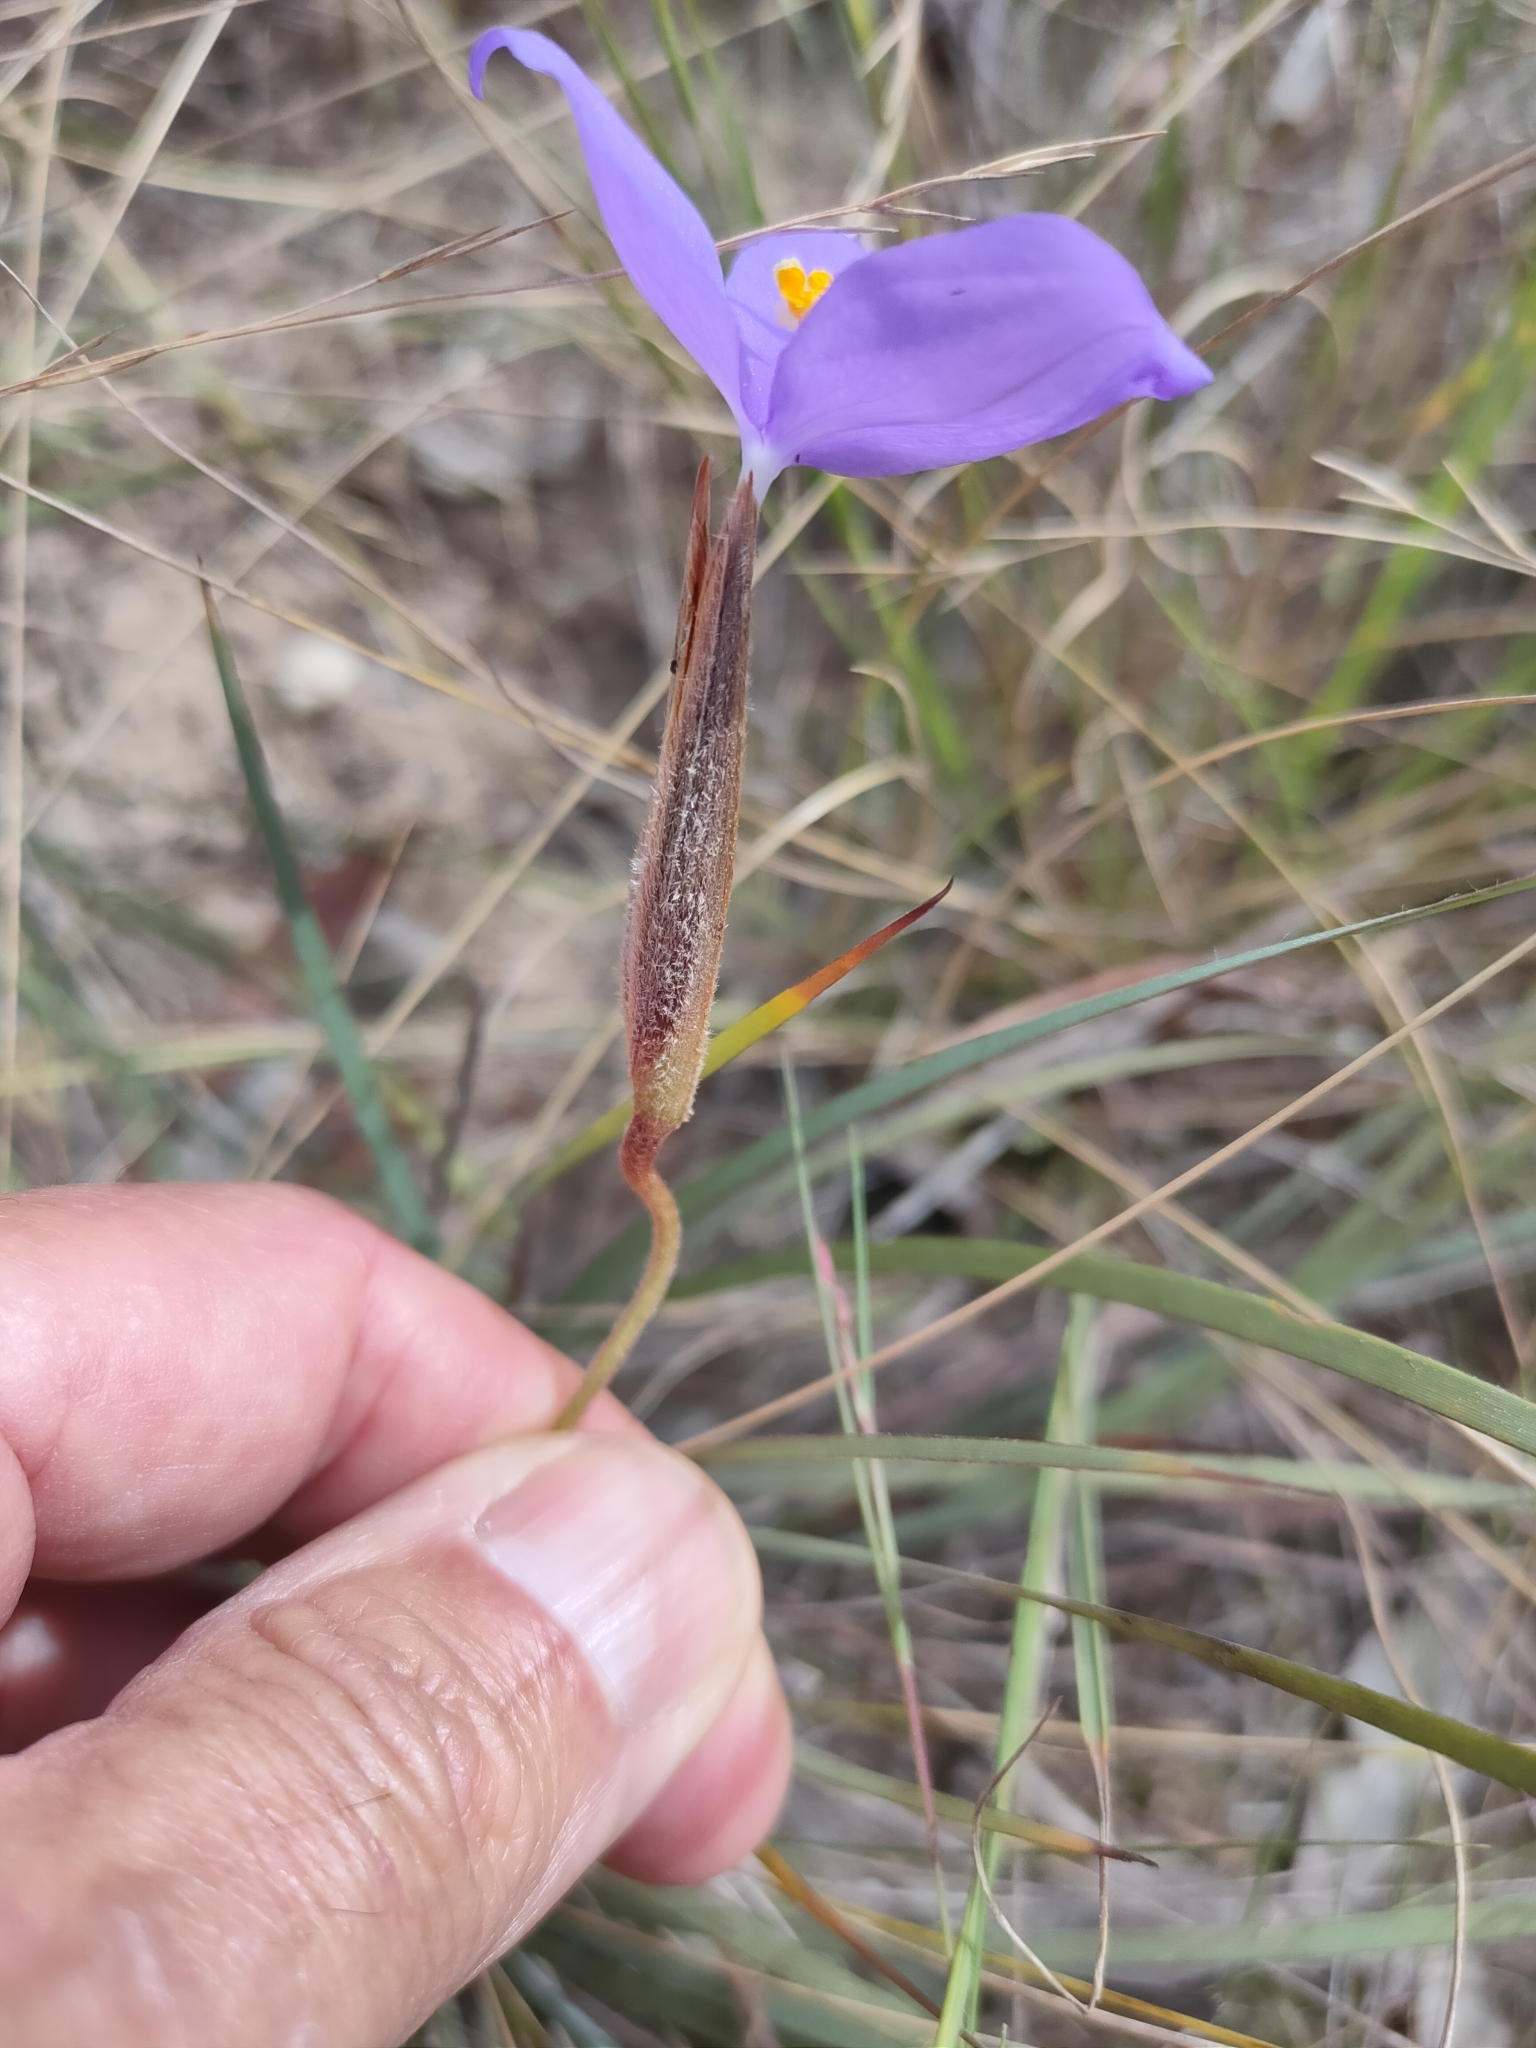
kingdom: Plantae
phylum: Tracheophyta
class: Liliopsida
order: Asparagales
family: Iridaceae
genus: Patersonia
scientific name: Patersonia sericea
